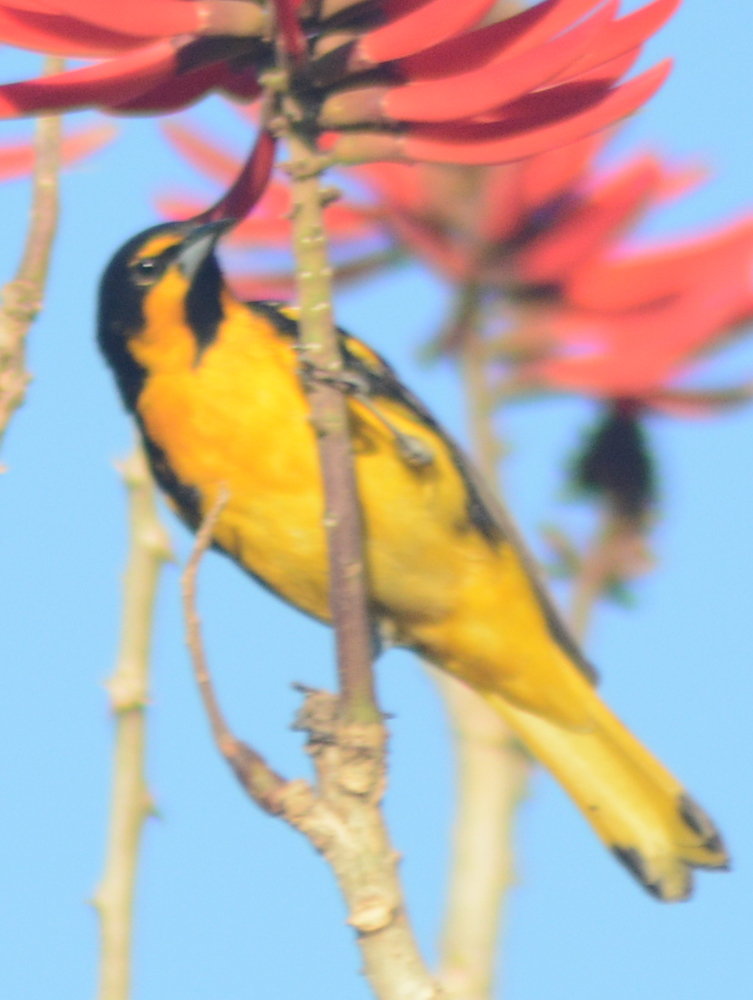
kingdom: Animalia
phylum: Chordata
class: Aves
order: Passeriformes
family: Icteridae
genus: Icterus
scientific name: Icterus abeillei
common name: Black-backed oriole
